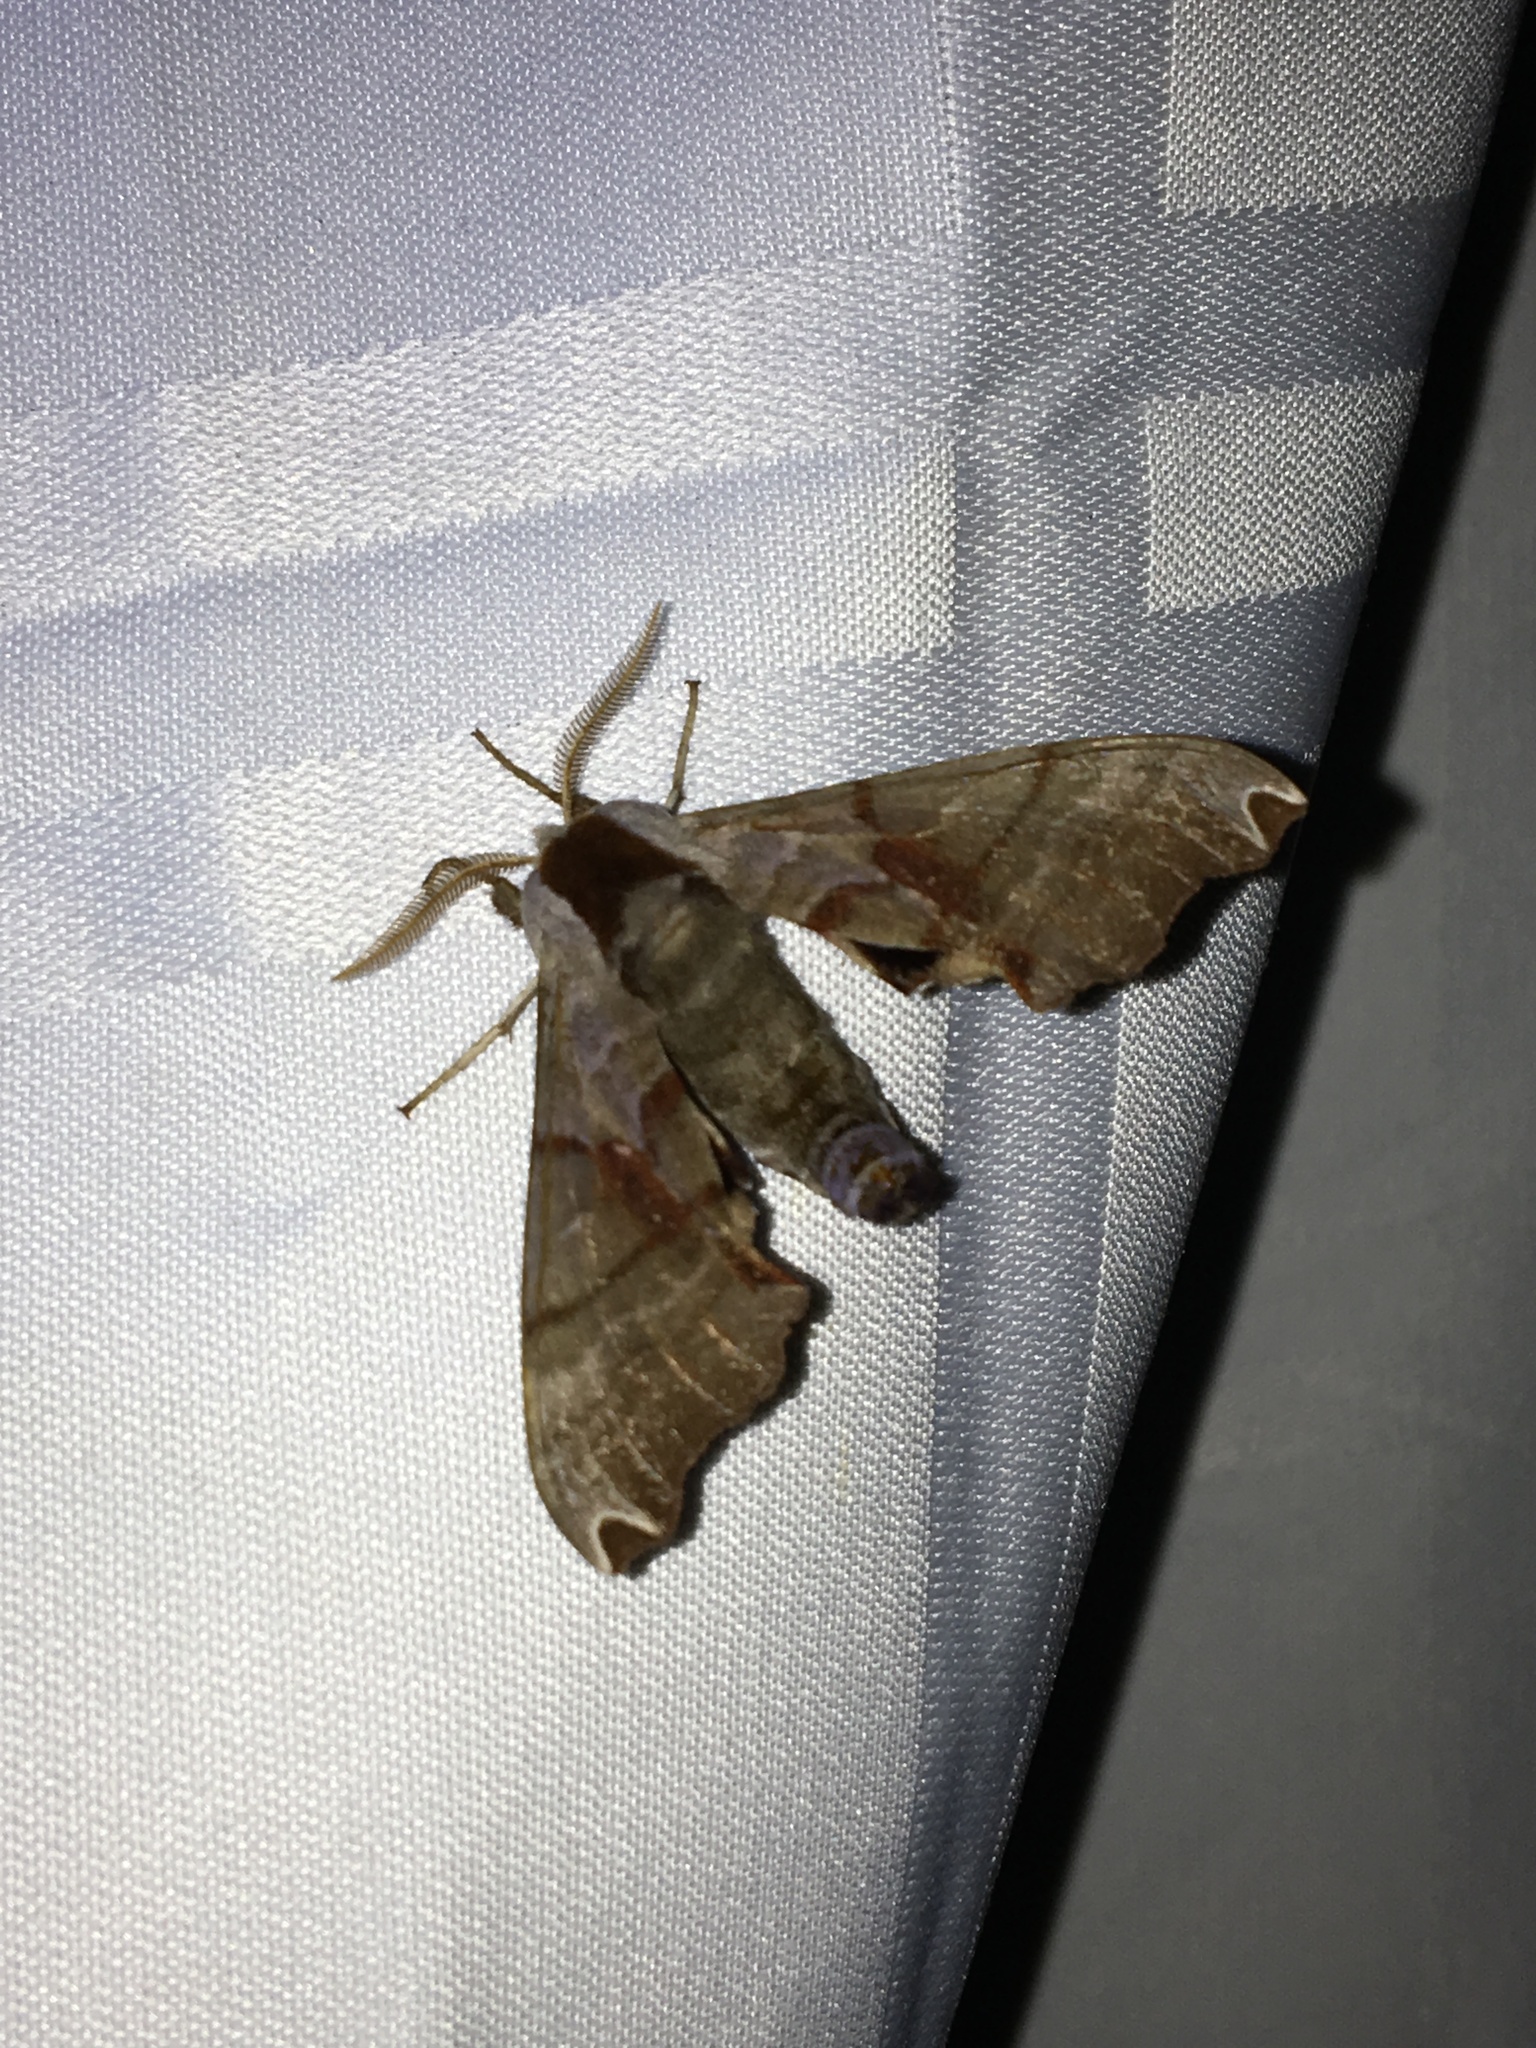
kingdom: Animalia
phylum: Arthropoda
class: Insecta
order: Lepidoptera
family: Sphingidae
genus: Smerinthus
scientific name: Smerinthus jamaicensis
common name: Twin spotted sphinx
